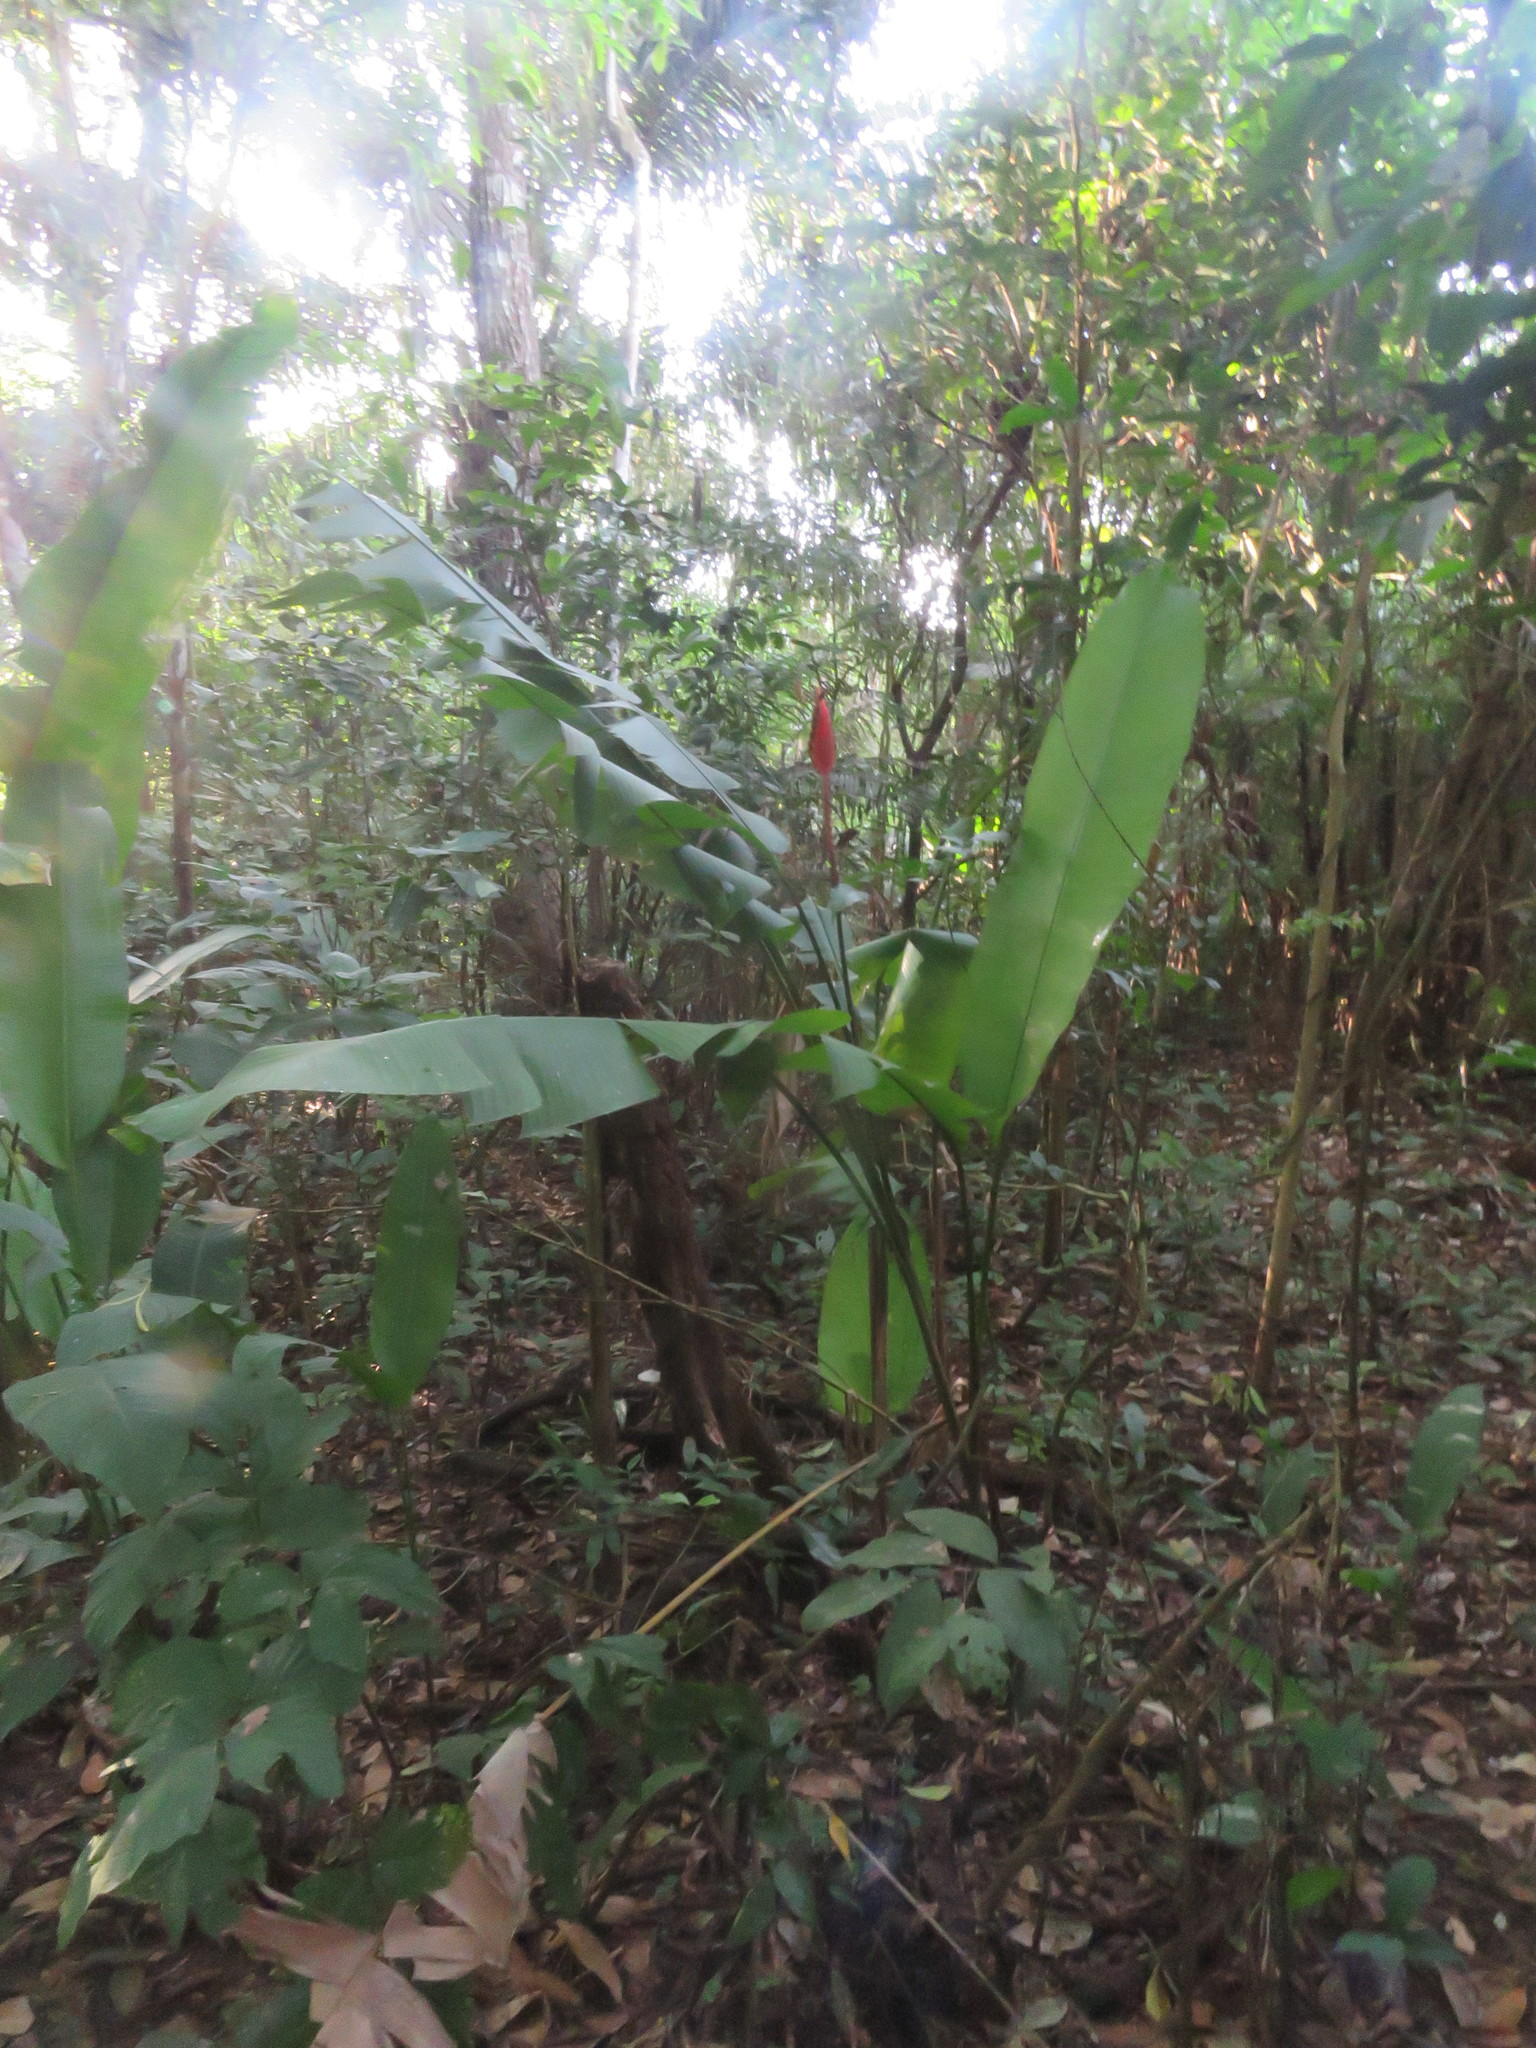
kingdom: Plantae
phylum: Tracheophyta
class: Liliopsida
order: Zingiberales
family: Heliconiaceae
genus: Heliconia
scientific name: Heliconia episcopalis
